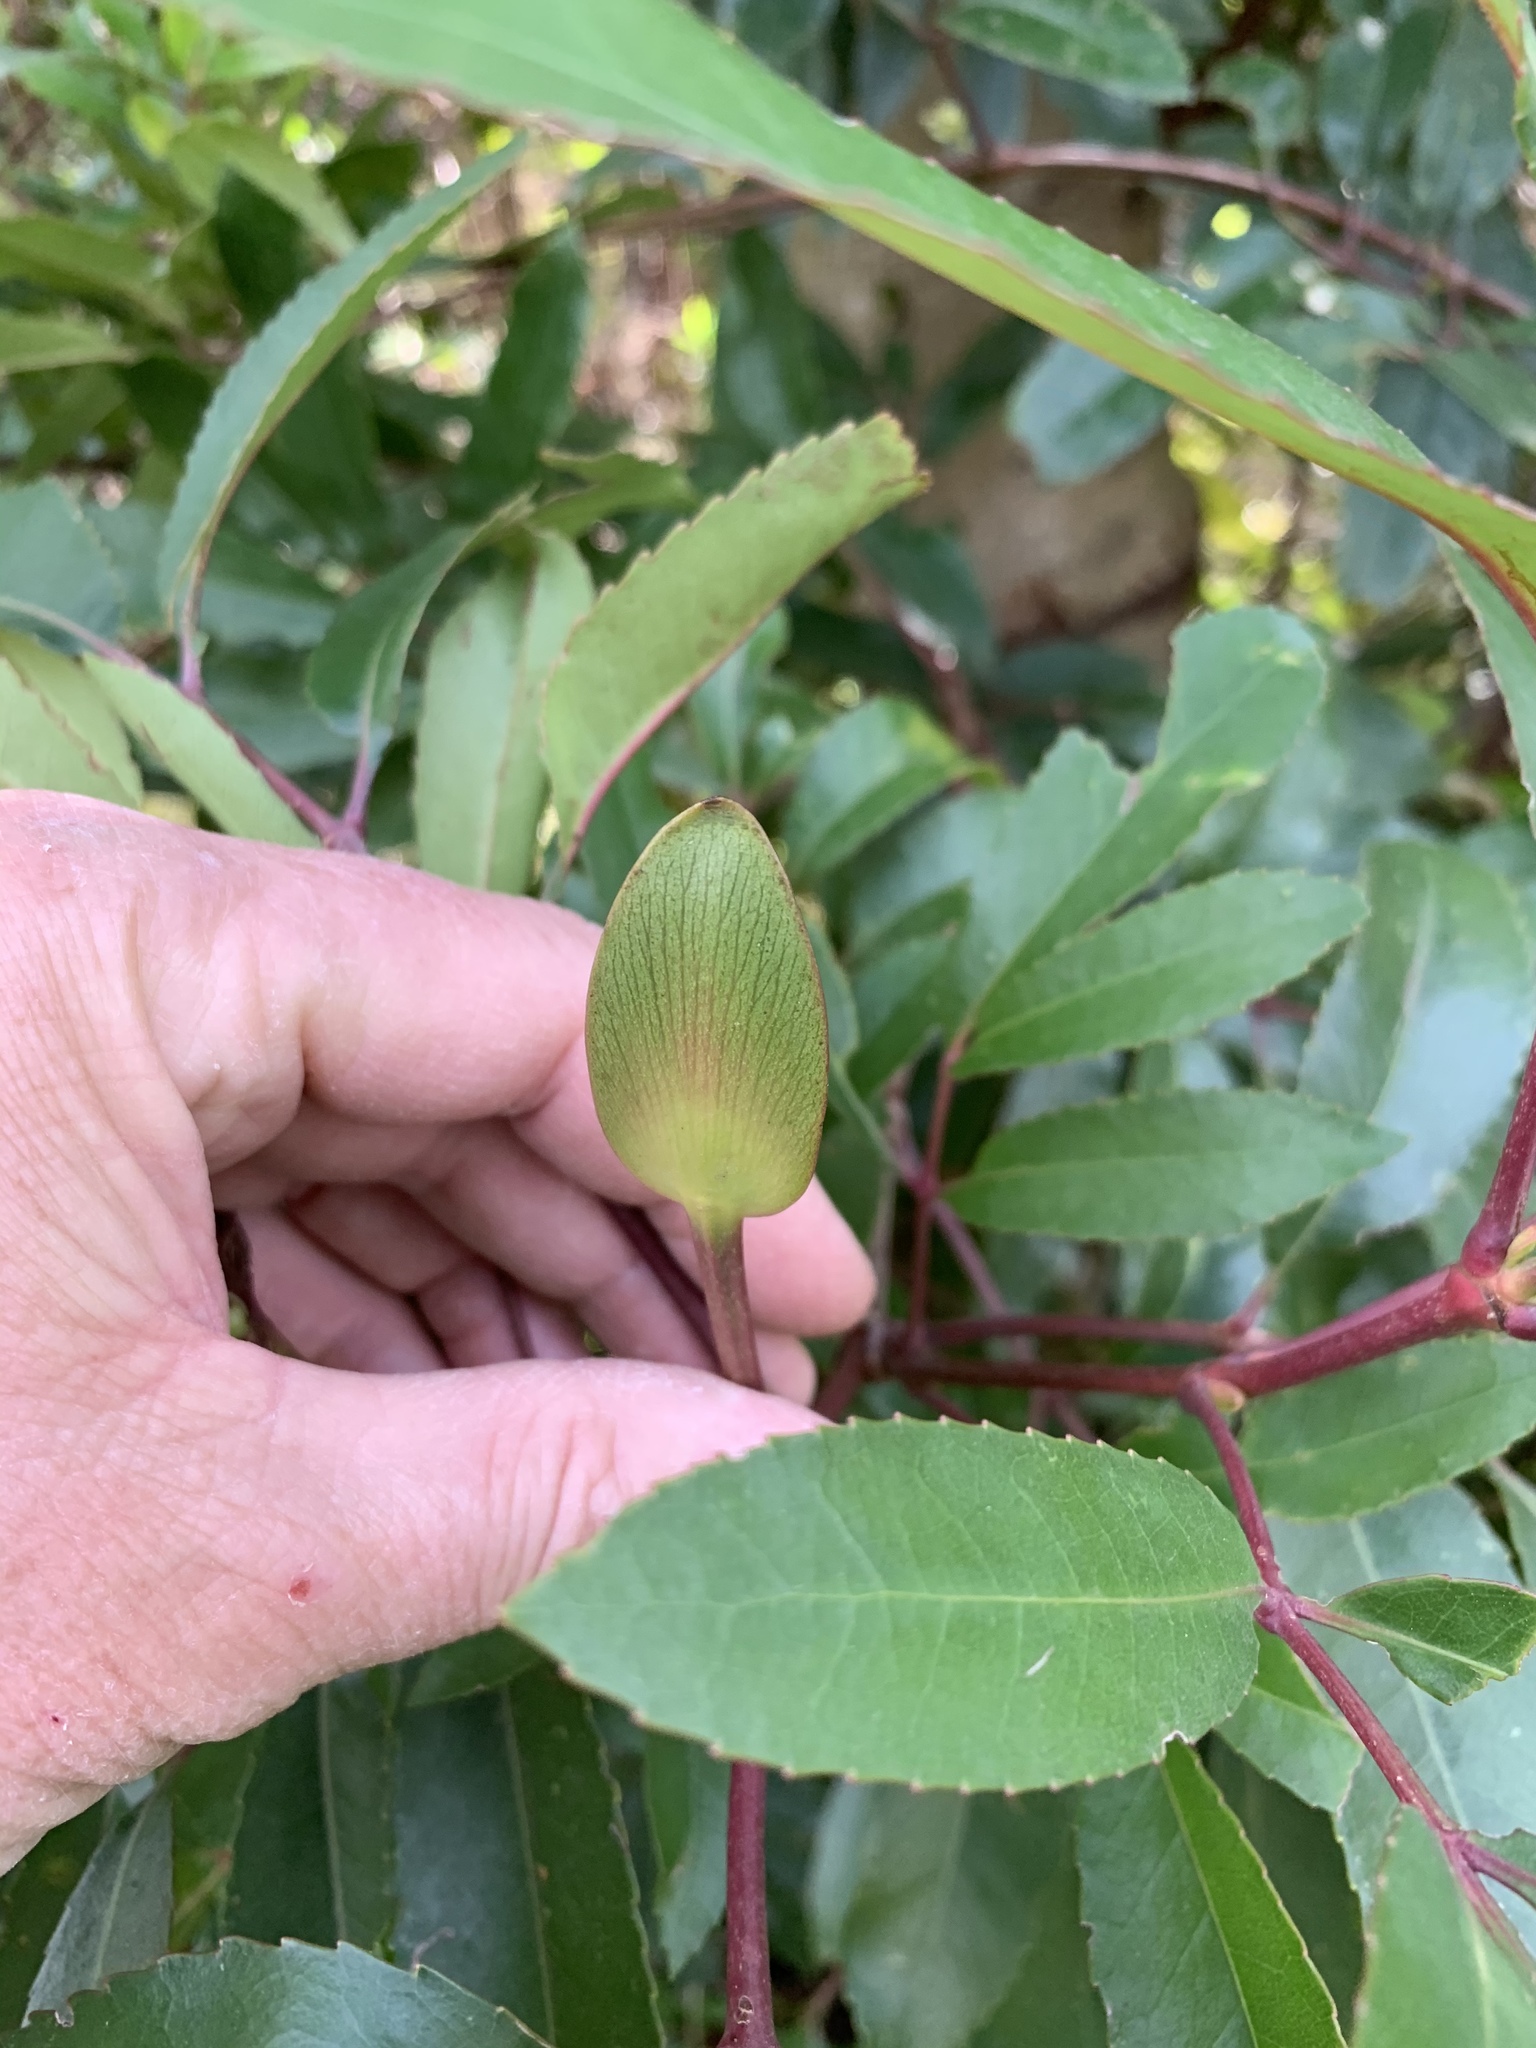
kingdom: Plantae
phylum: Tracheophyta
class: Magnoliopsida
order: Oxalidales
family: Cunoniaceae
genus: Cunonia
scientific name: Cunonia capensis
